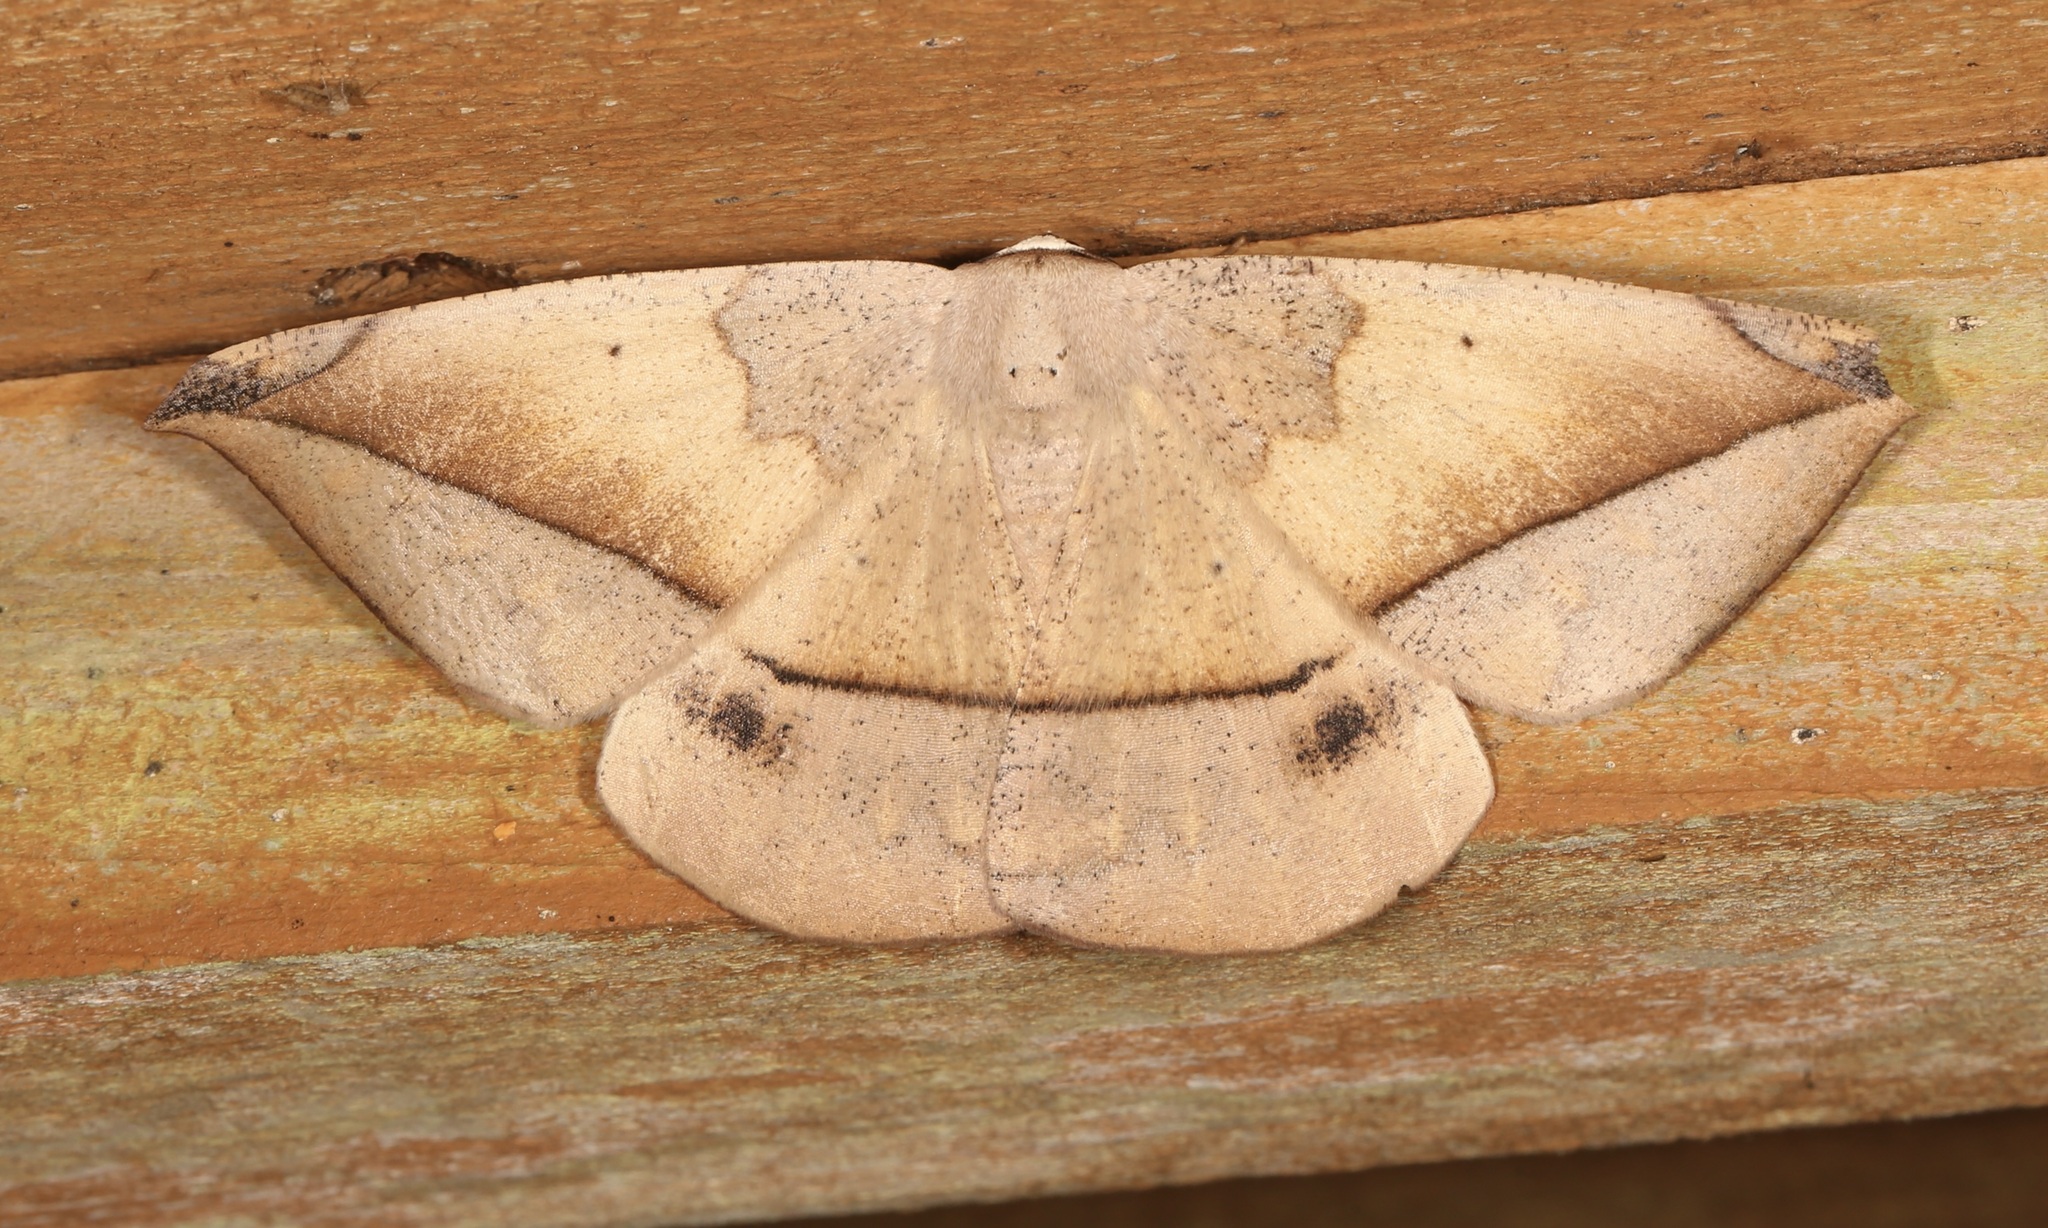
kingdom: Animalia
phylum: Arthropoda
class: Insecta
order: Lepidoptera
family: Geometridae
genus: Oxydia
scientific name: Oxydia vesulia
